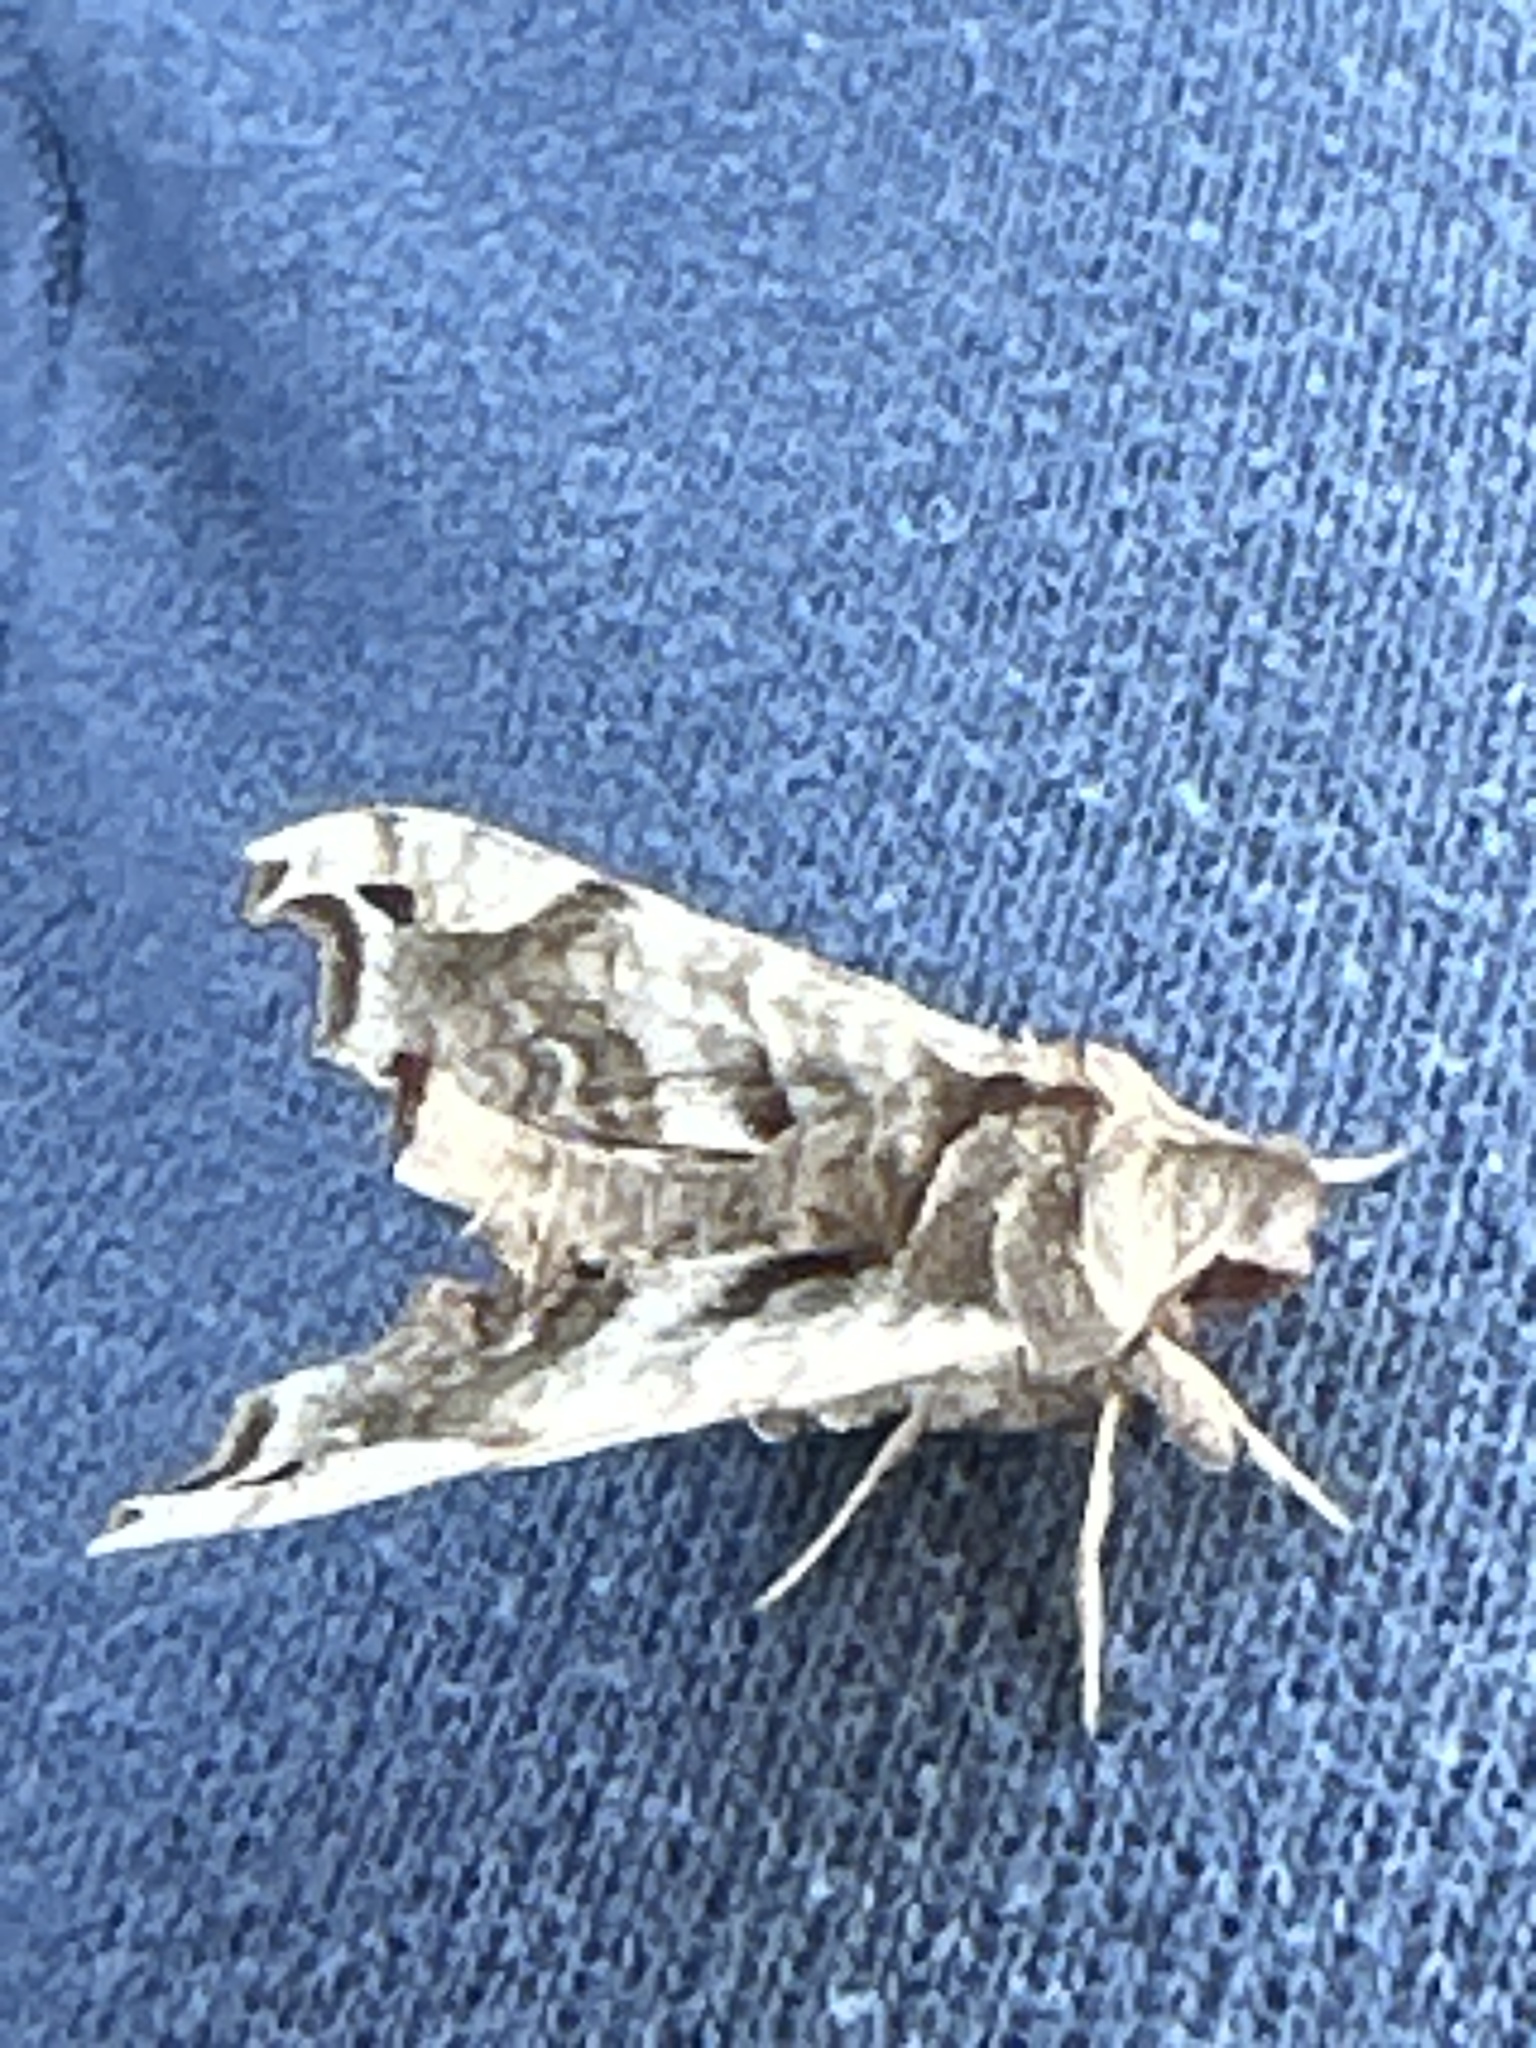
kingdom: Animalia
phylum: Arthropoda
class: Insecta
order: Lepidoptera
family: Sphingidae
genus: Deidamia
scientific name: Deidamia inscriptum
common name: Lettered sphinx
